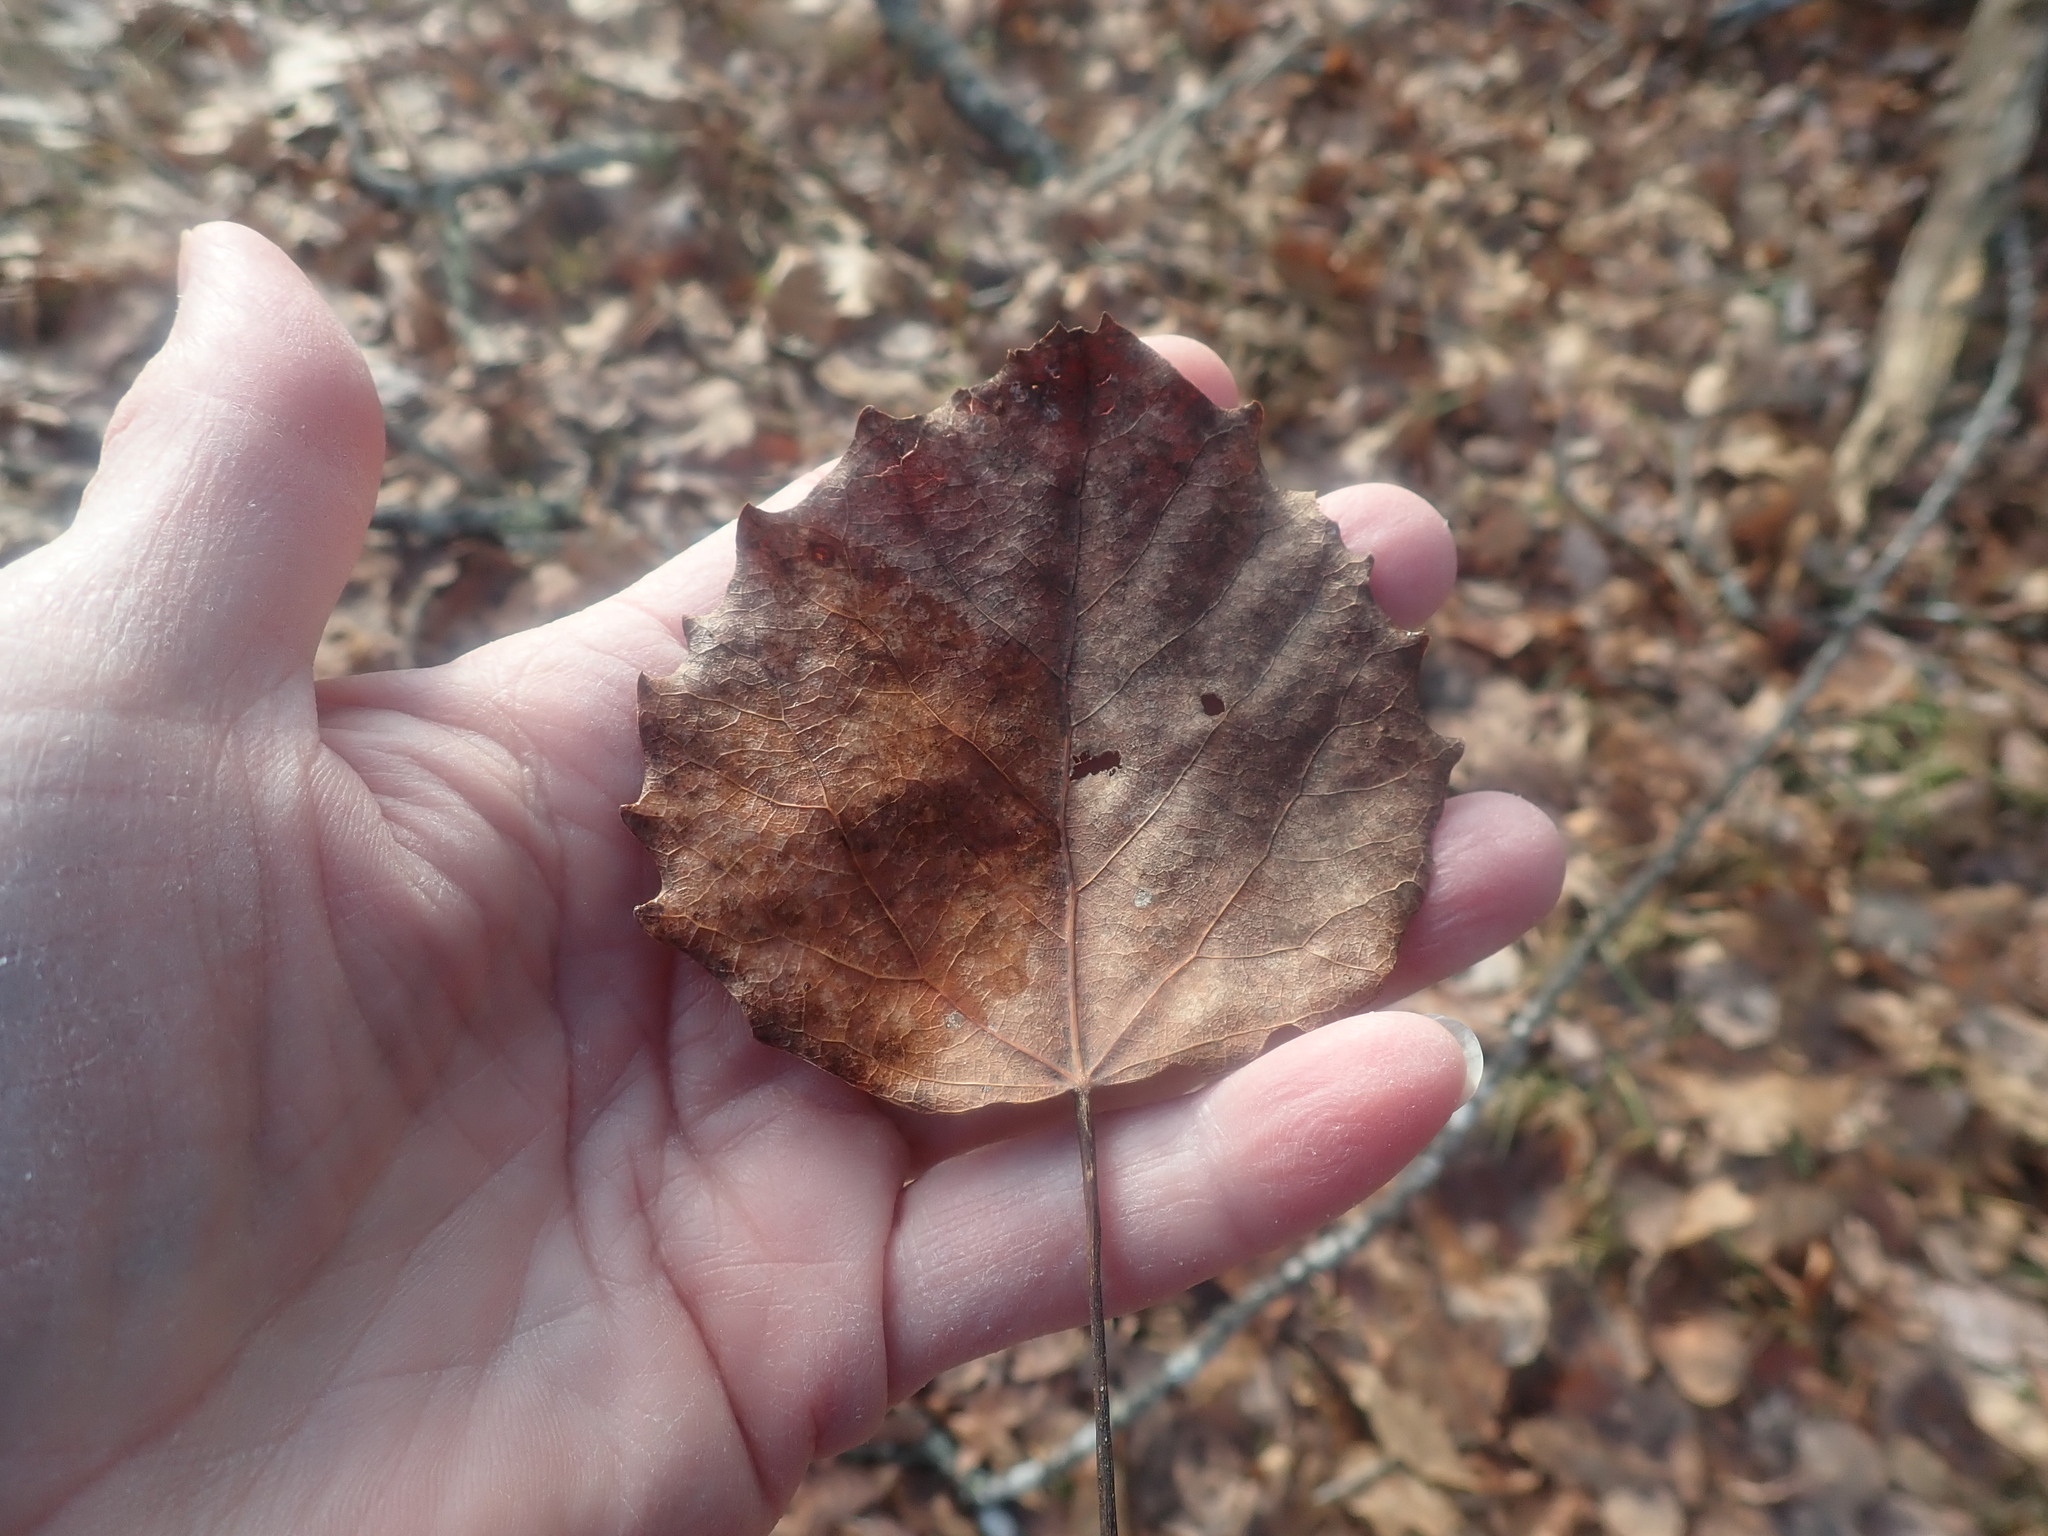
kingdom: Plantae
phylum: Tracheophyta
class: Magnoliopsida
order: Malpighiales
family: Salicaceae
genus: Populus
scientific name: Populus grandidentata
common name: Bigtooth aspen
